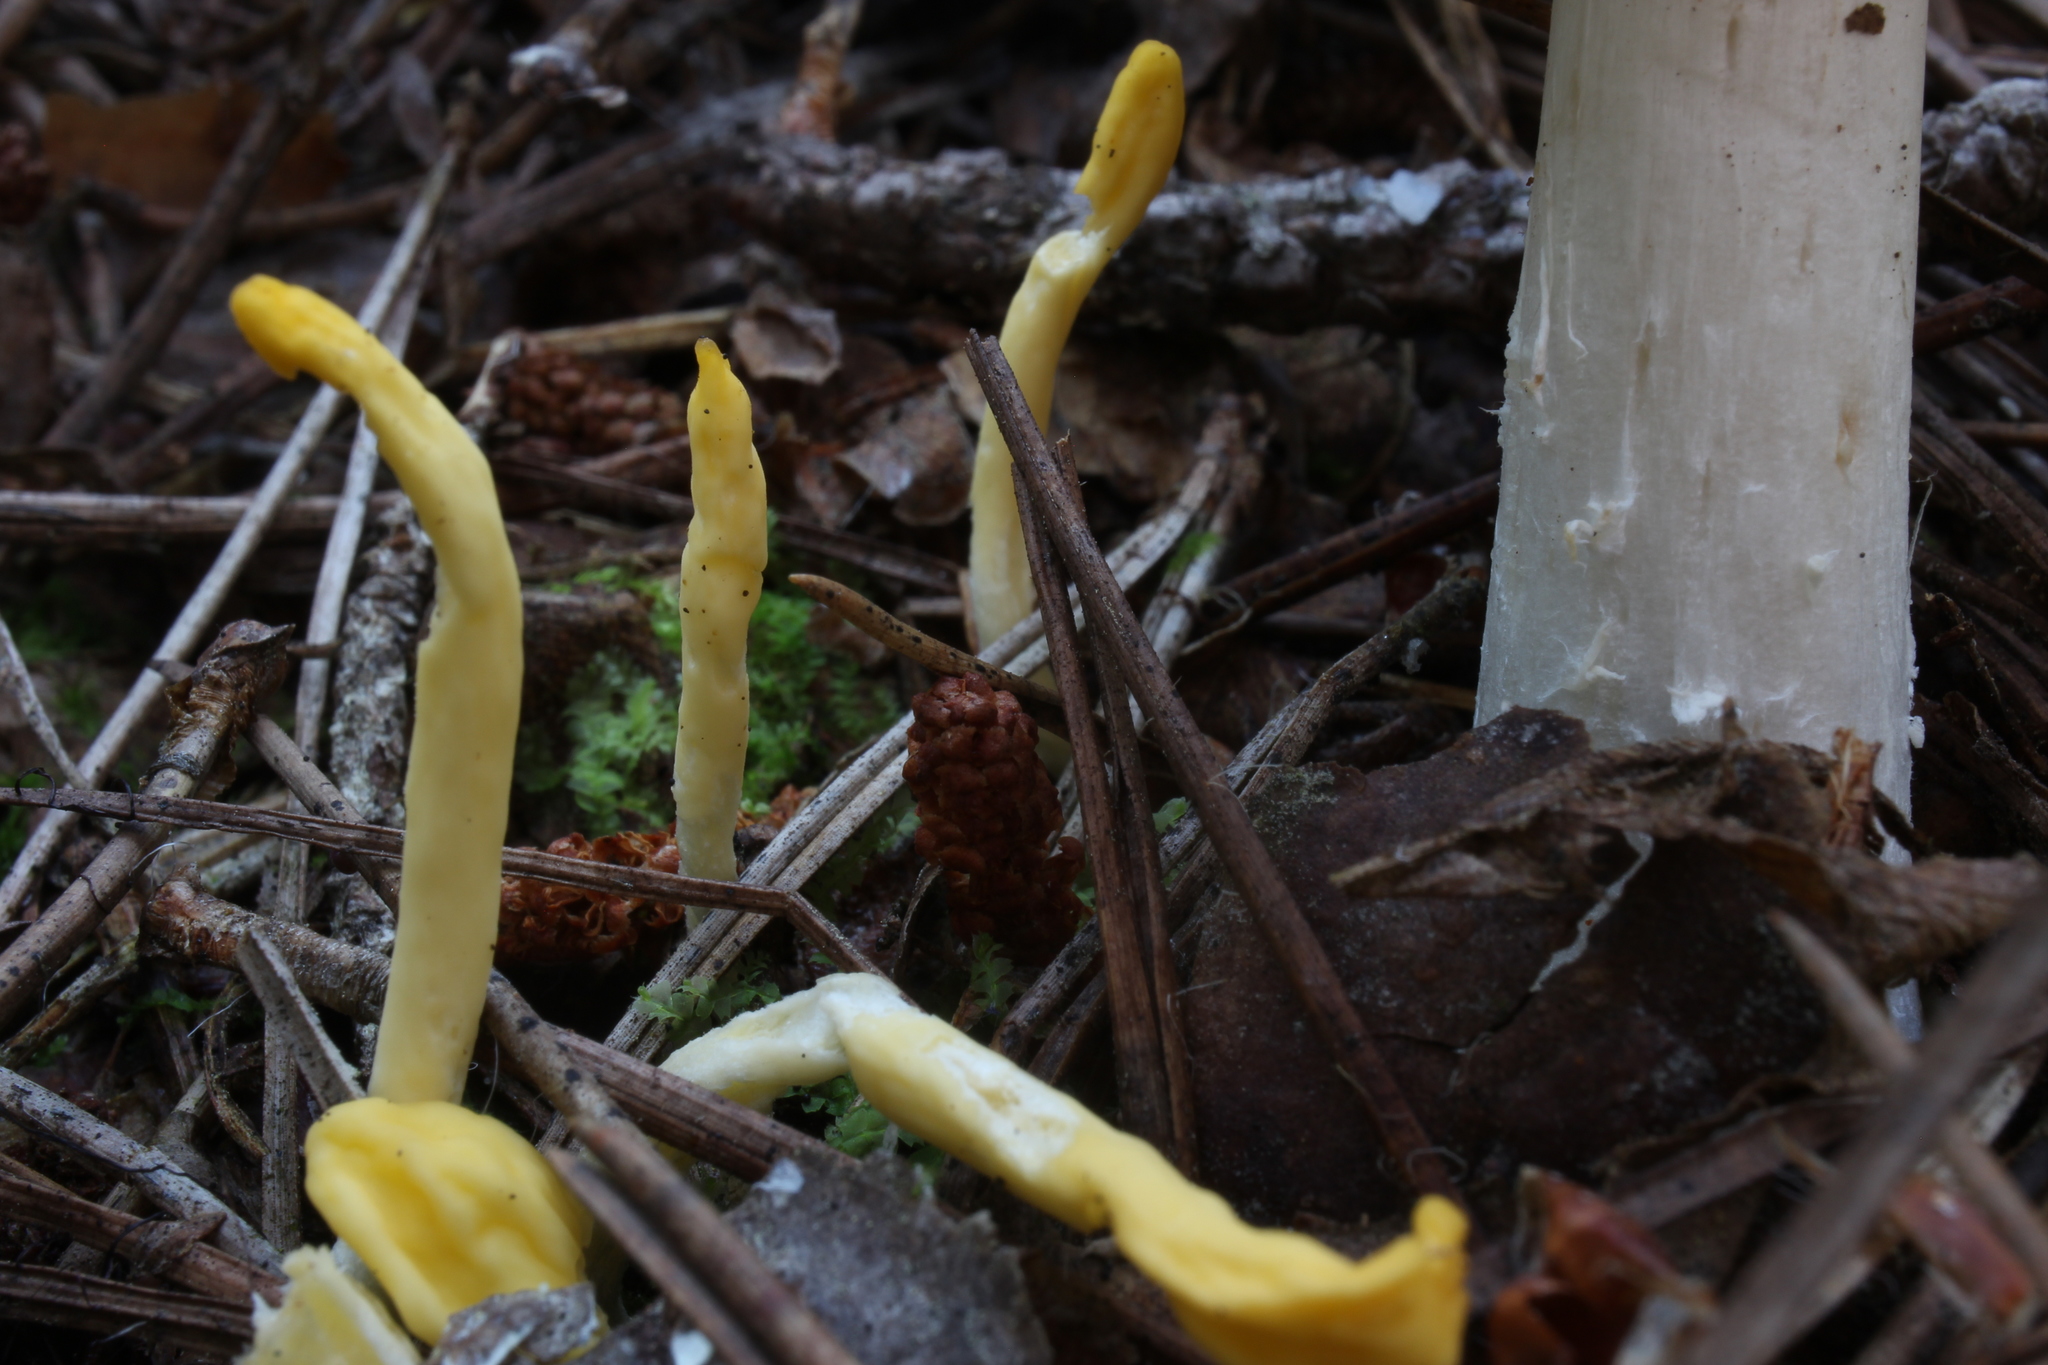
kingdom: Fungi
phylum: Ascomycota
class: Neolectomycetes
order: Neolectales
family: Neolectaceae
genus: Neolecta
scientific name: Neolecta vitellina
